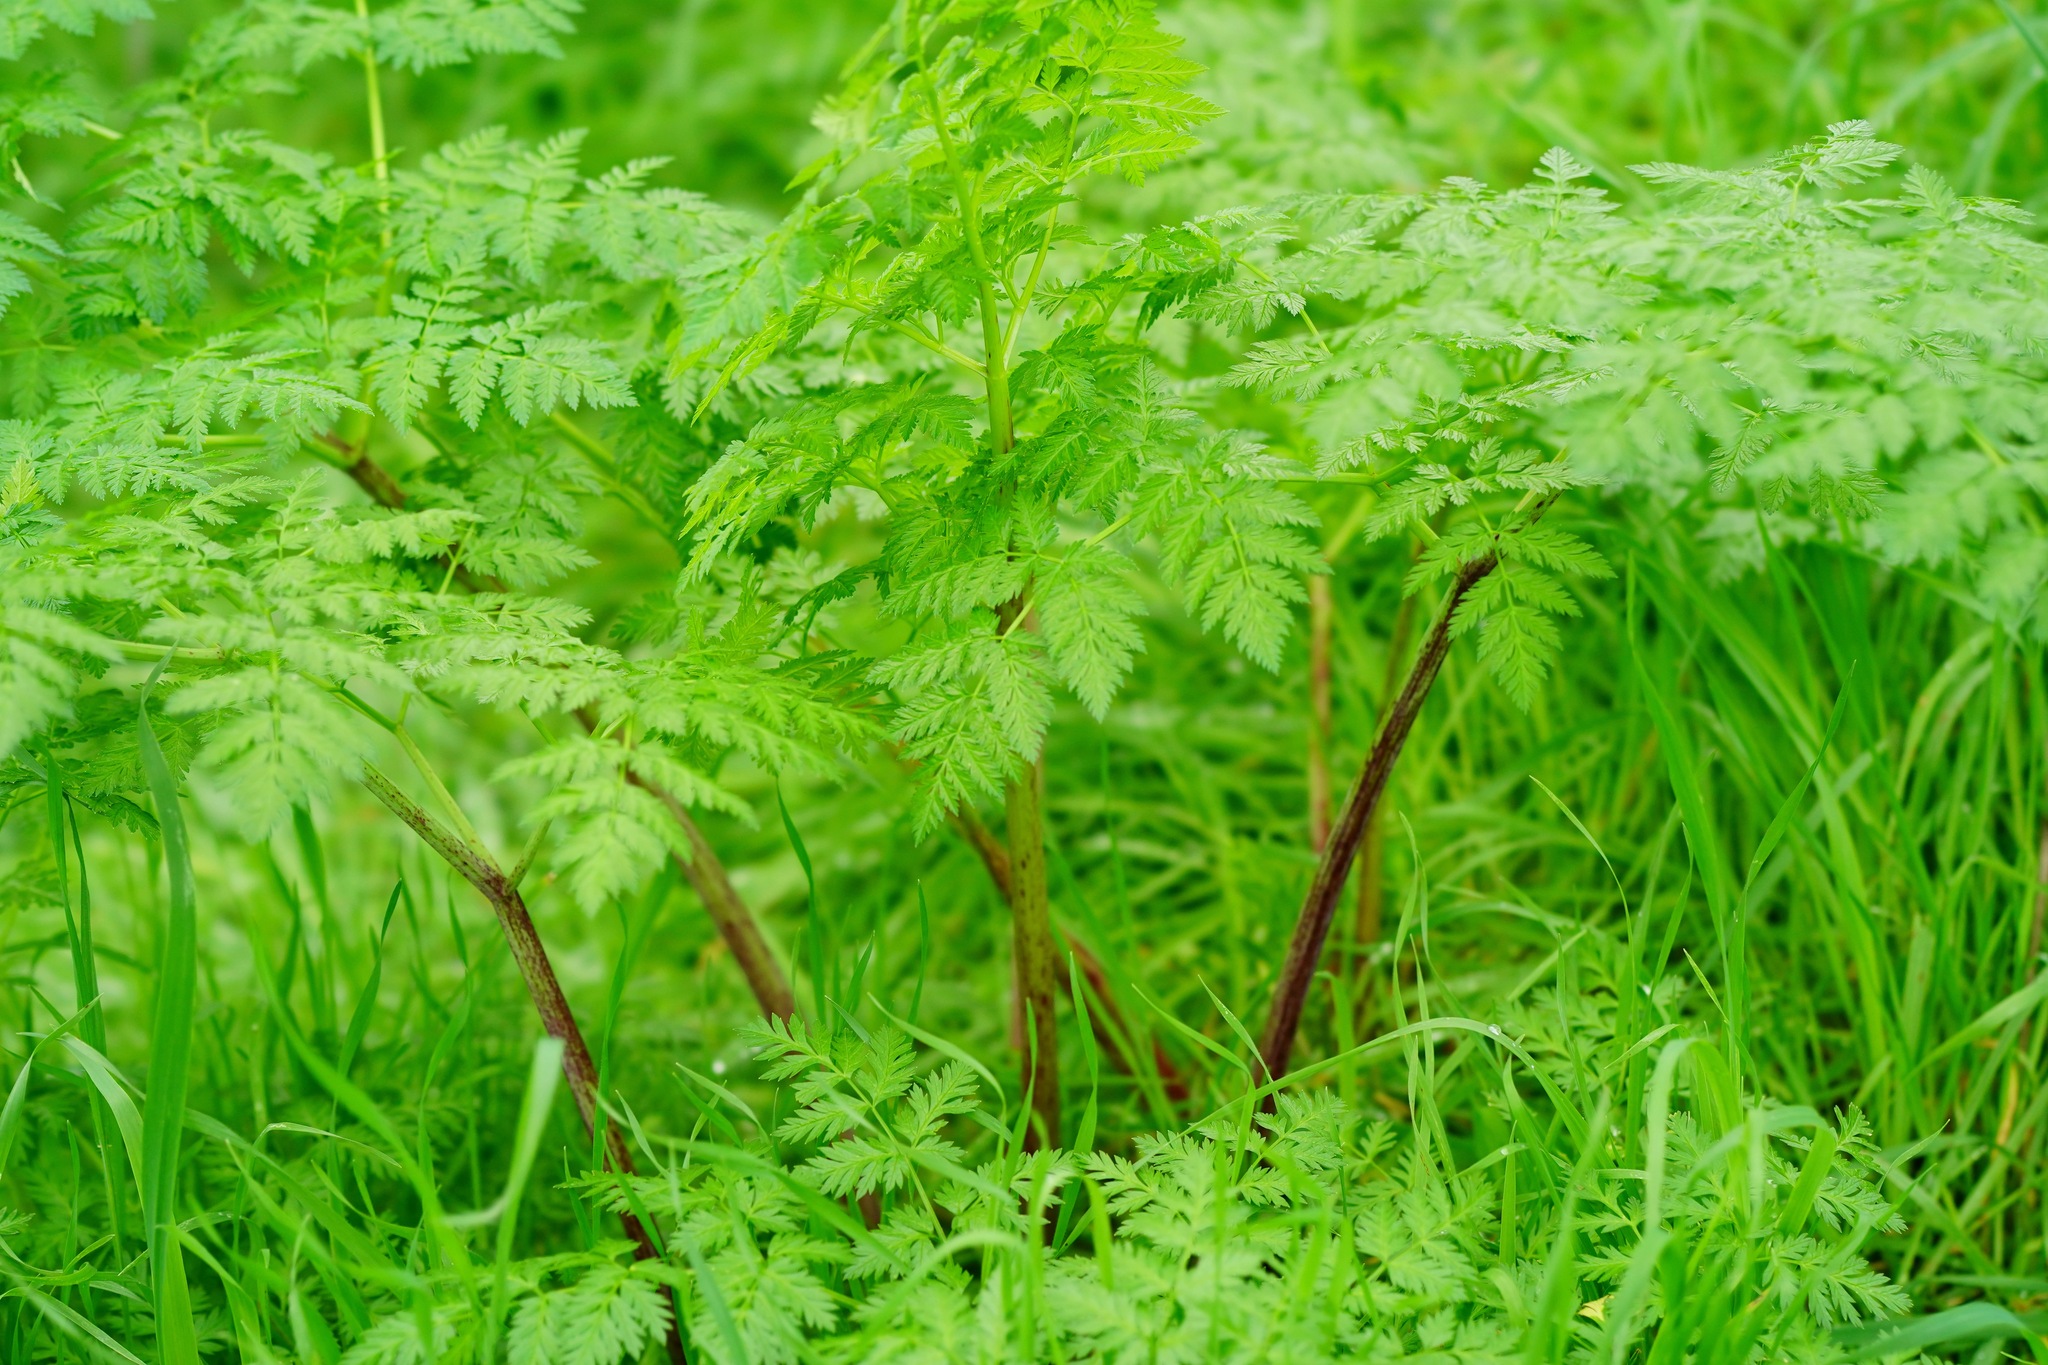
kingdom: Plantae
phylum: Tracheophyta
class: Magnoliopsida
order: Apiales
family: Apiaceae
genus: Conium
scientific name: Conium maculatum
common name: Hemlock
